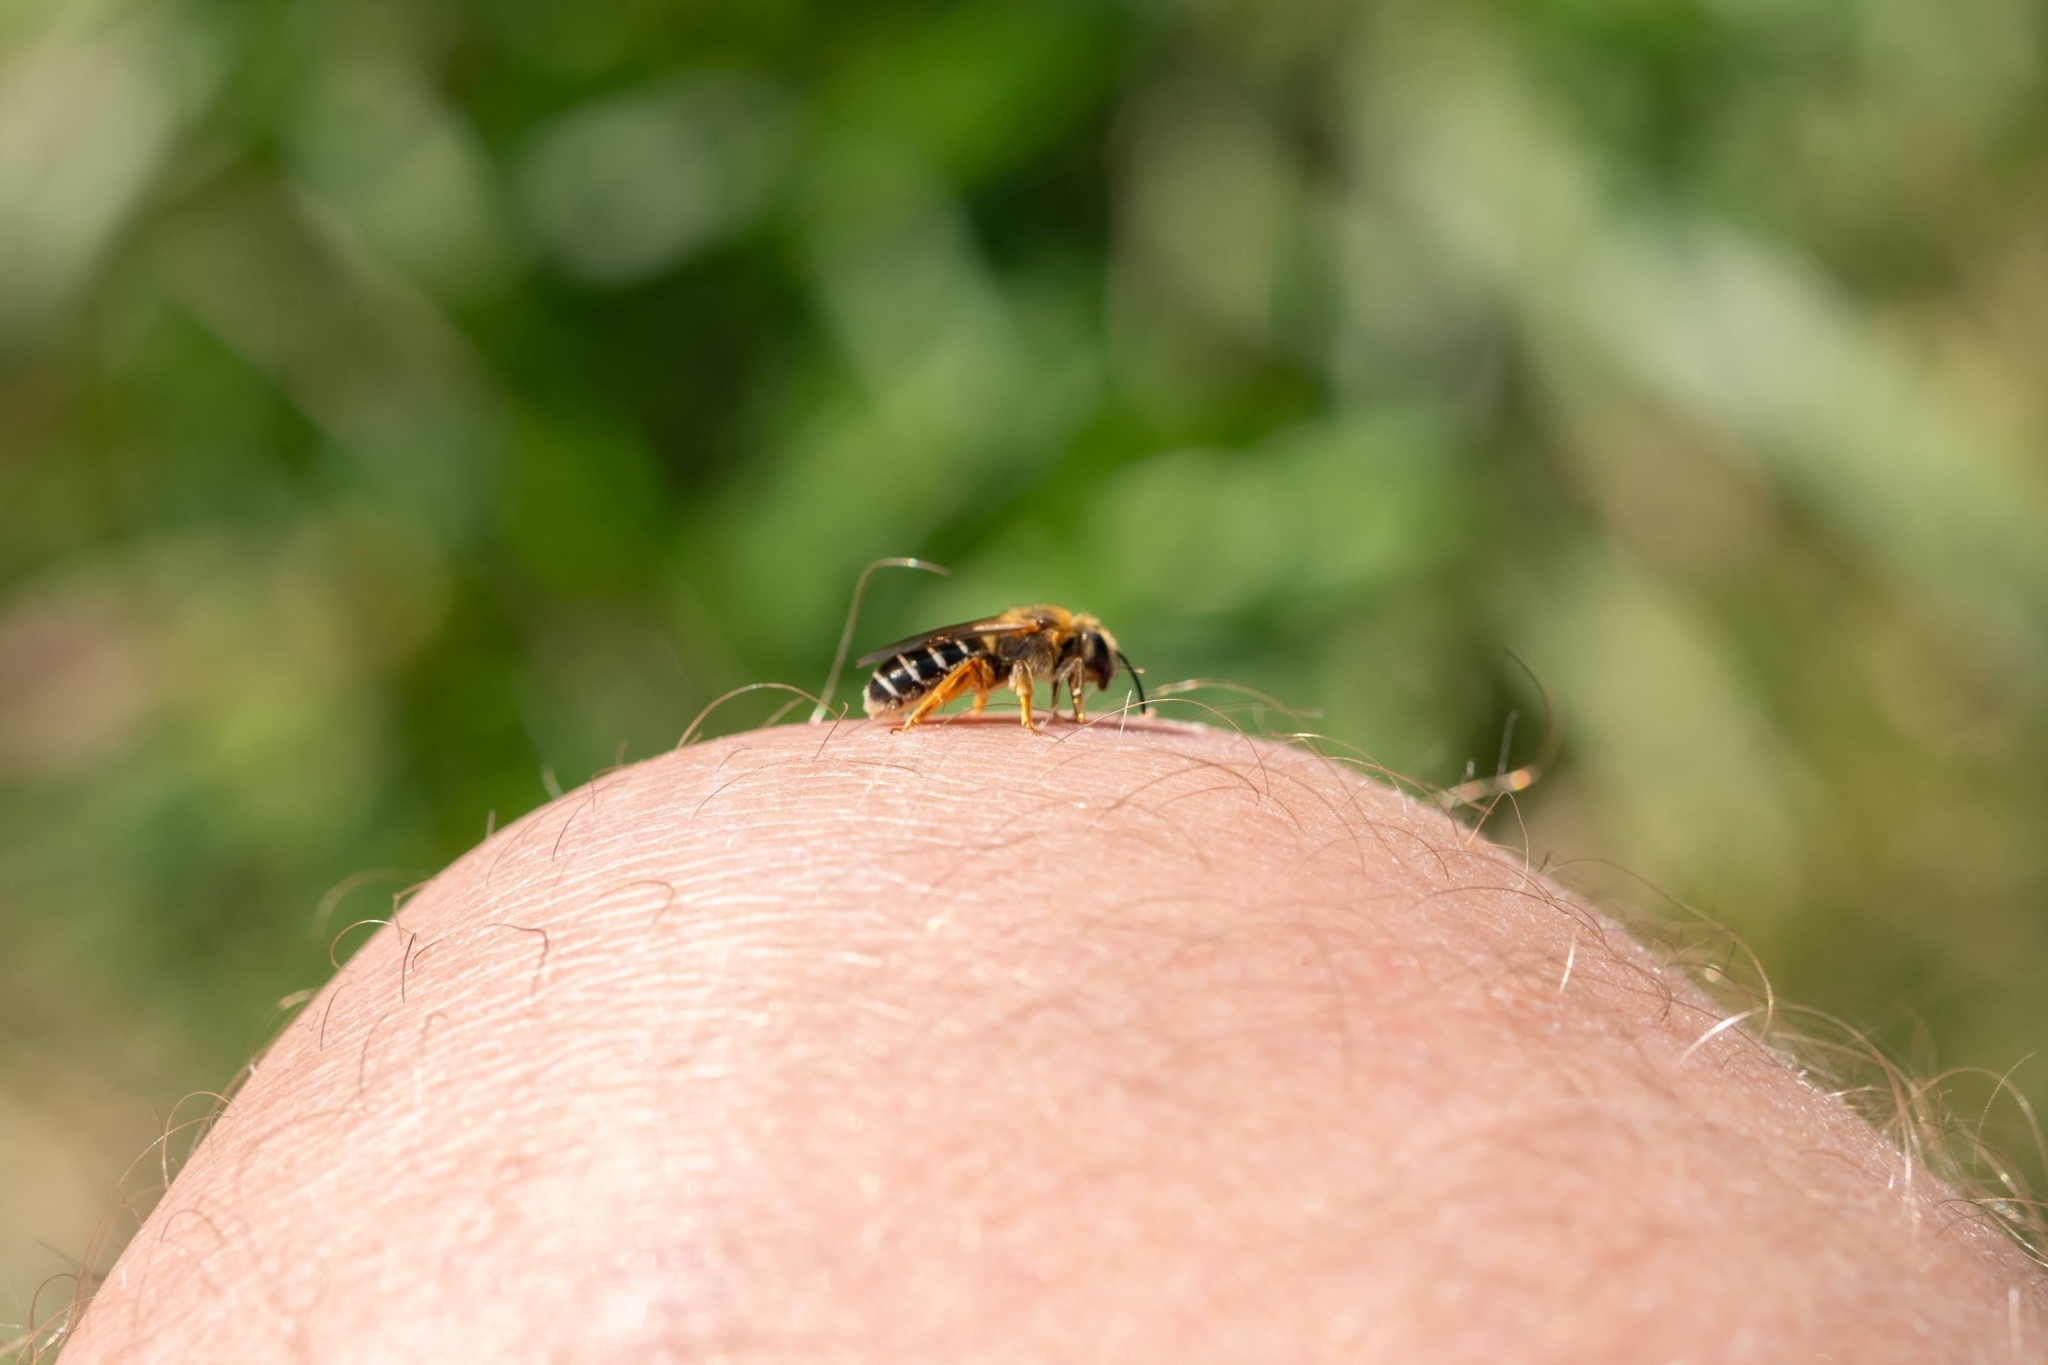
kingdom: Animalia
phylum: Arthropoda
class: Insecta
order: Hymenoptera
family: Halictidae
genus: Halictus
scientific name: Halictus rubicundus
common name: Orange-legged furrow bee
